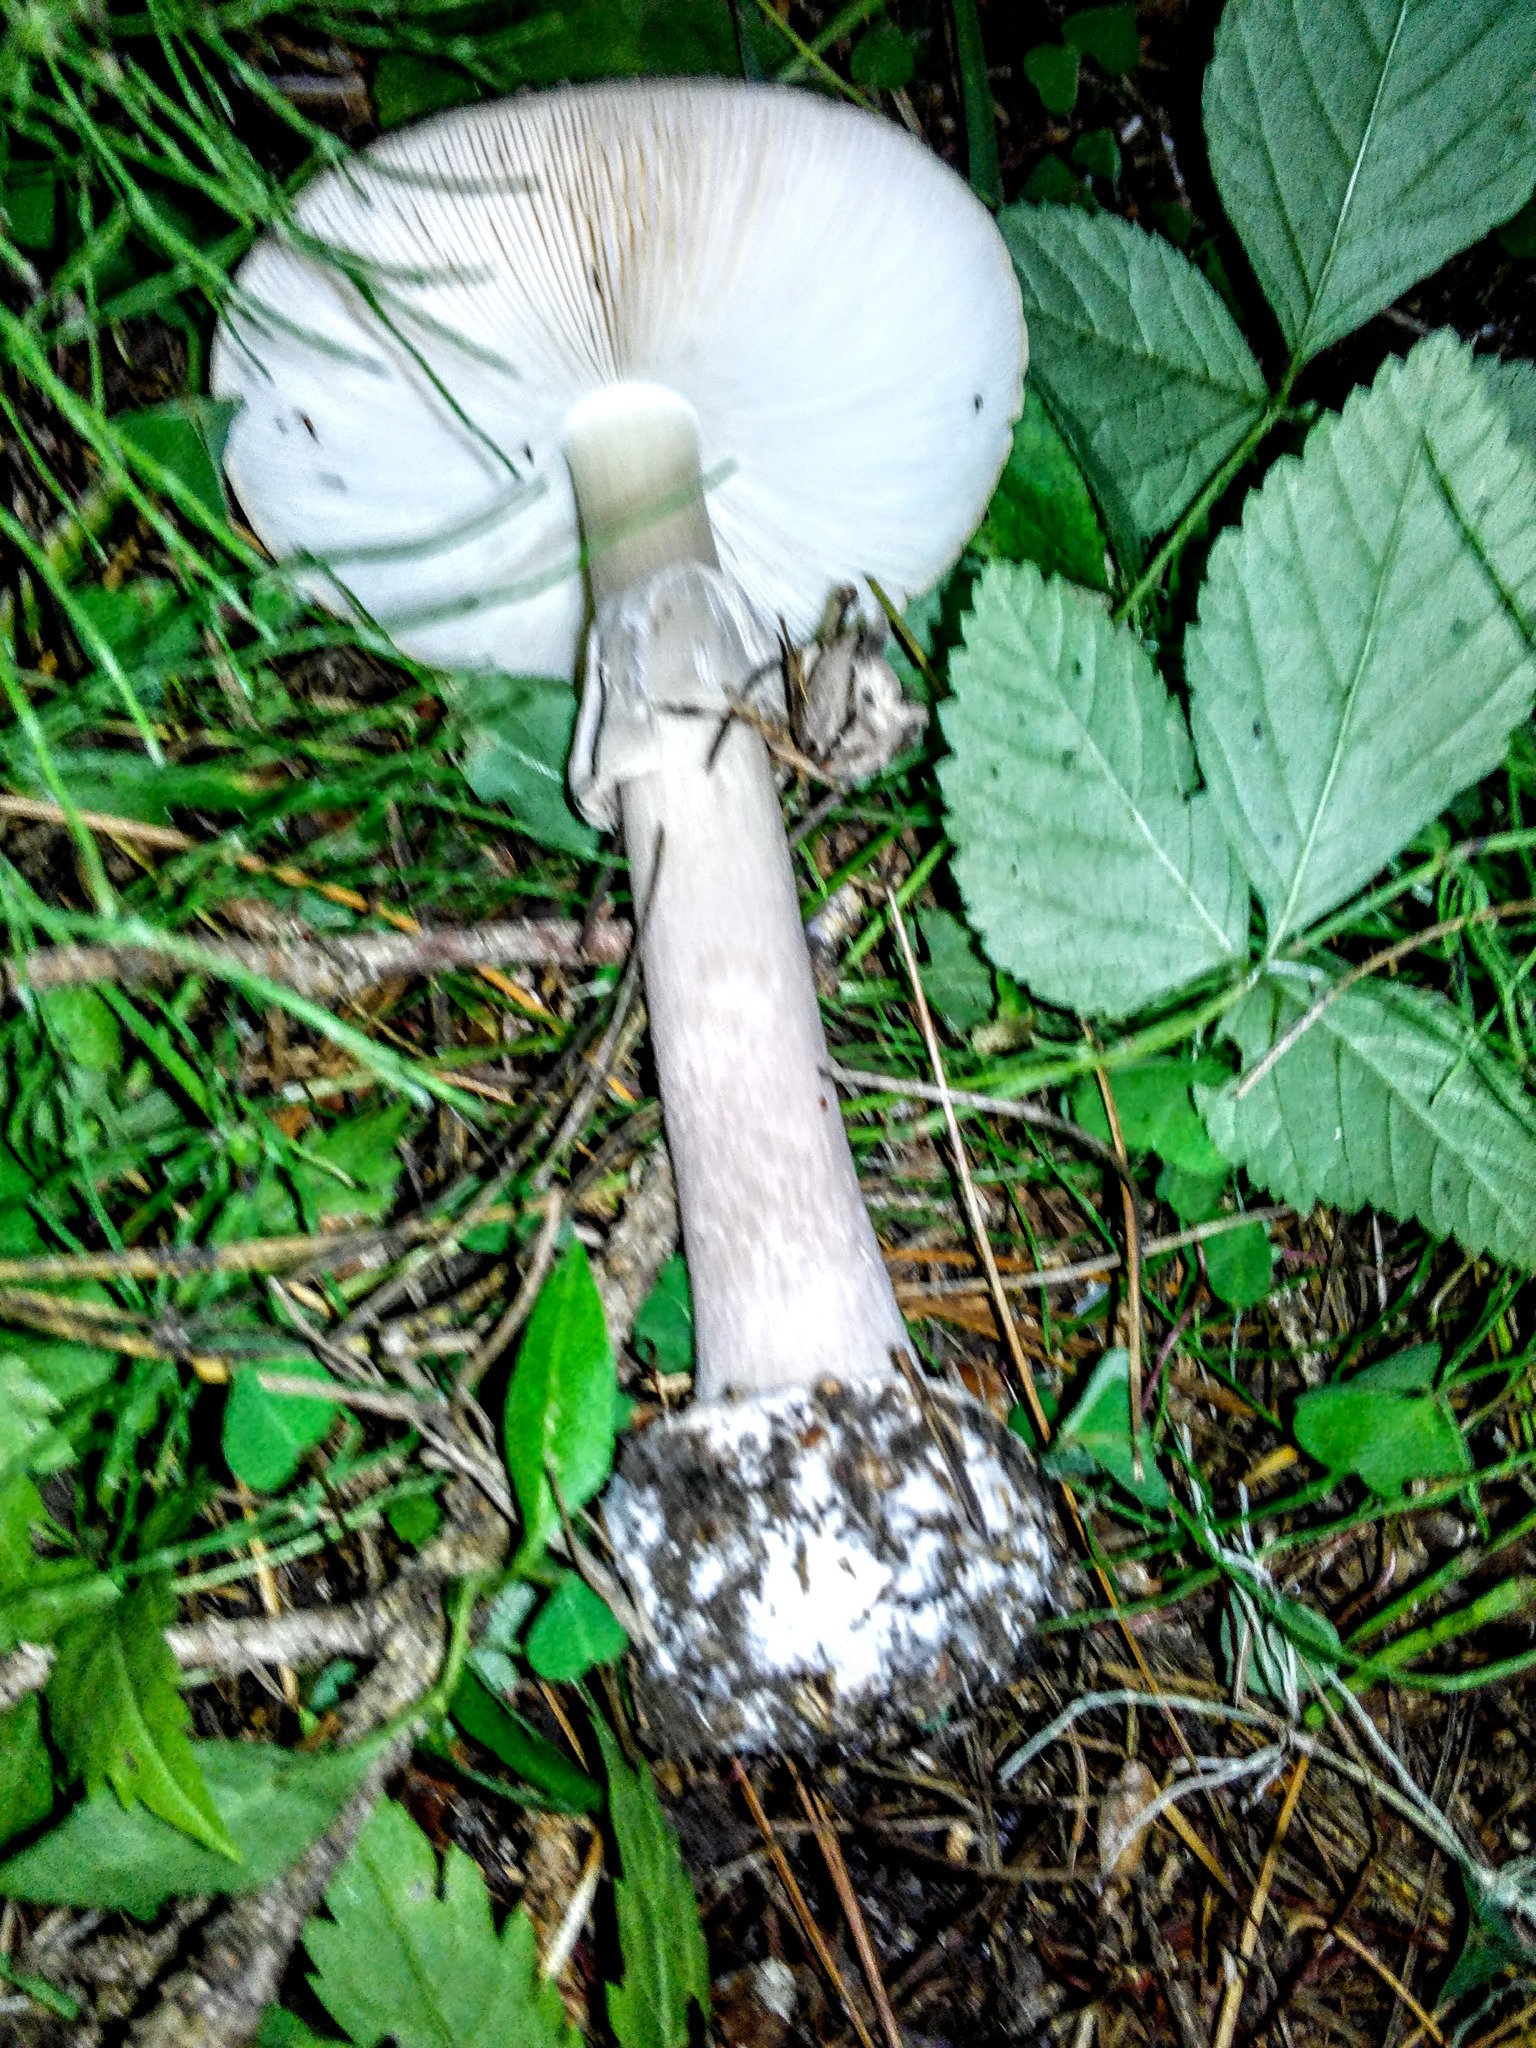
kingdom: Fungi
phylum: Basidiomycota
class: Agaricomycetes
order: Agaricales
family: Amanitaceae
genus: Amanita
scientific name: Amanita pantherina
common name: Panthercap
